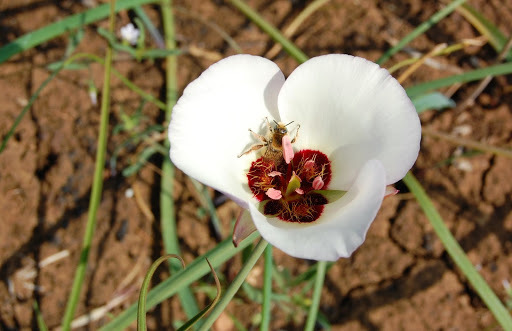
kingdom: Plantae
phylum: Tracheophyta
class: Liliopsida
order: Liliales
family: Liliaceae
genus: Calochortus
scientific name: Calochortus catalinae
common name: Catalina mariposa-lily
